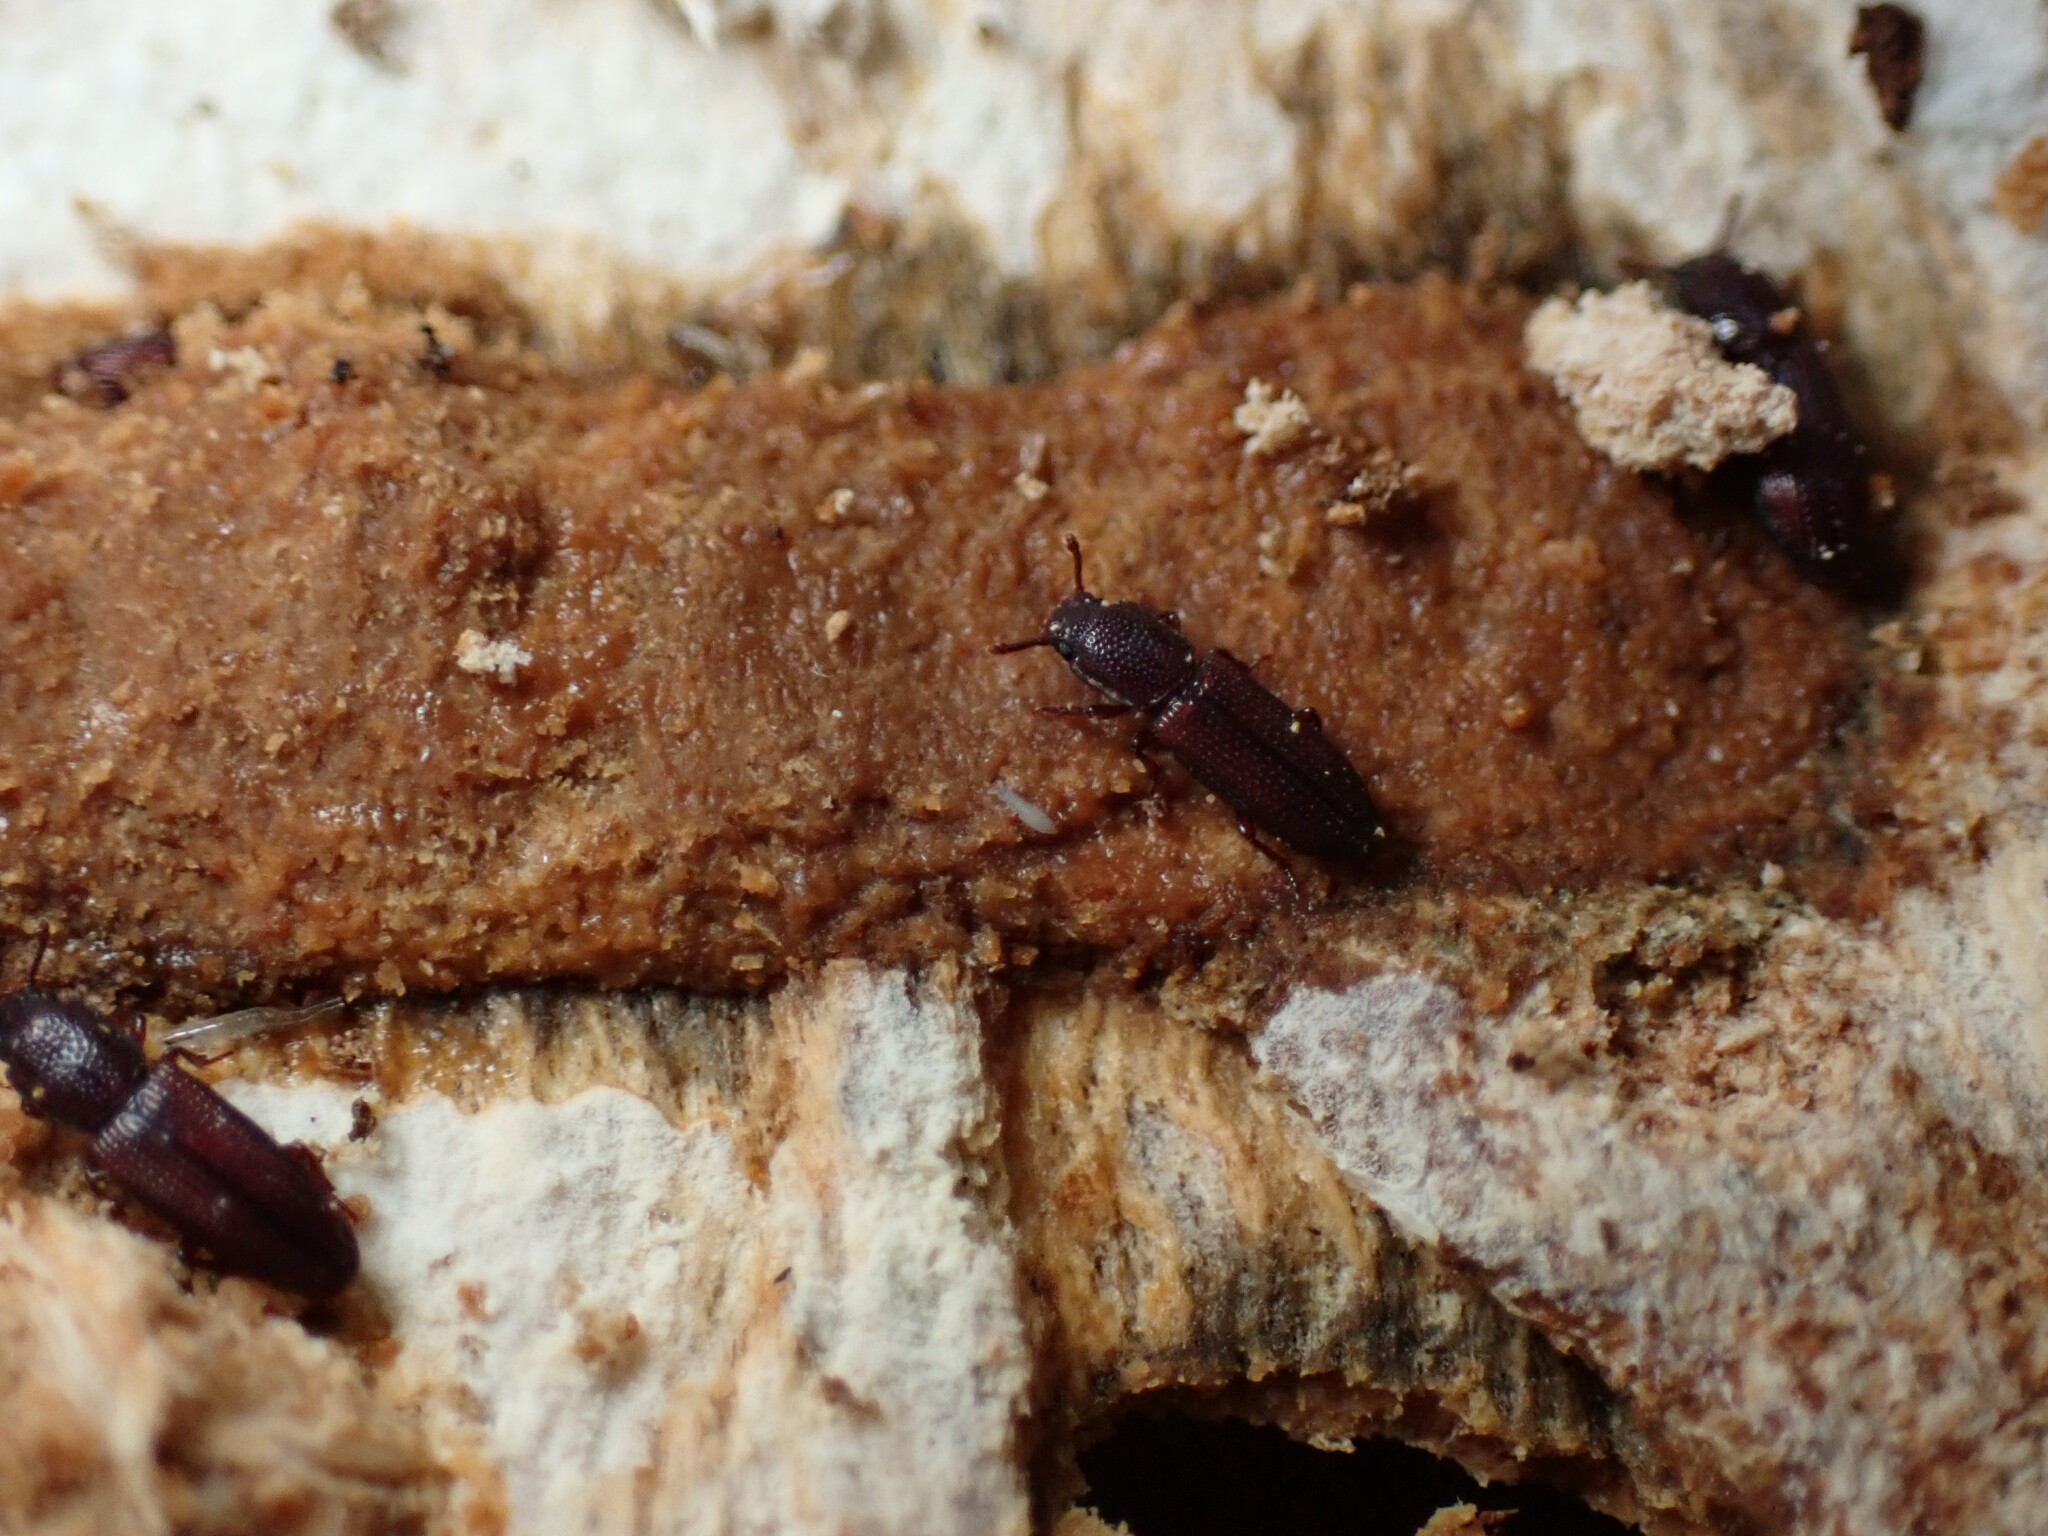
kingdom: Animalia
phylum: Arthropoda
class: Insecta
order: Coleoptera
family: Zopheridae
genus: Pycnomerus
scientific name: Pycnomerus reflexus
